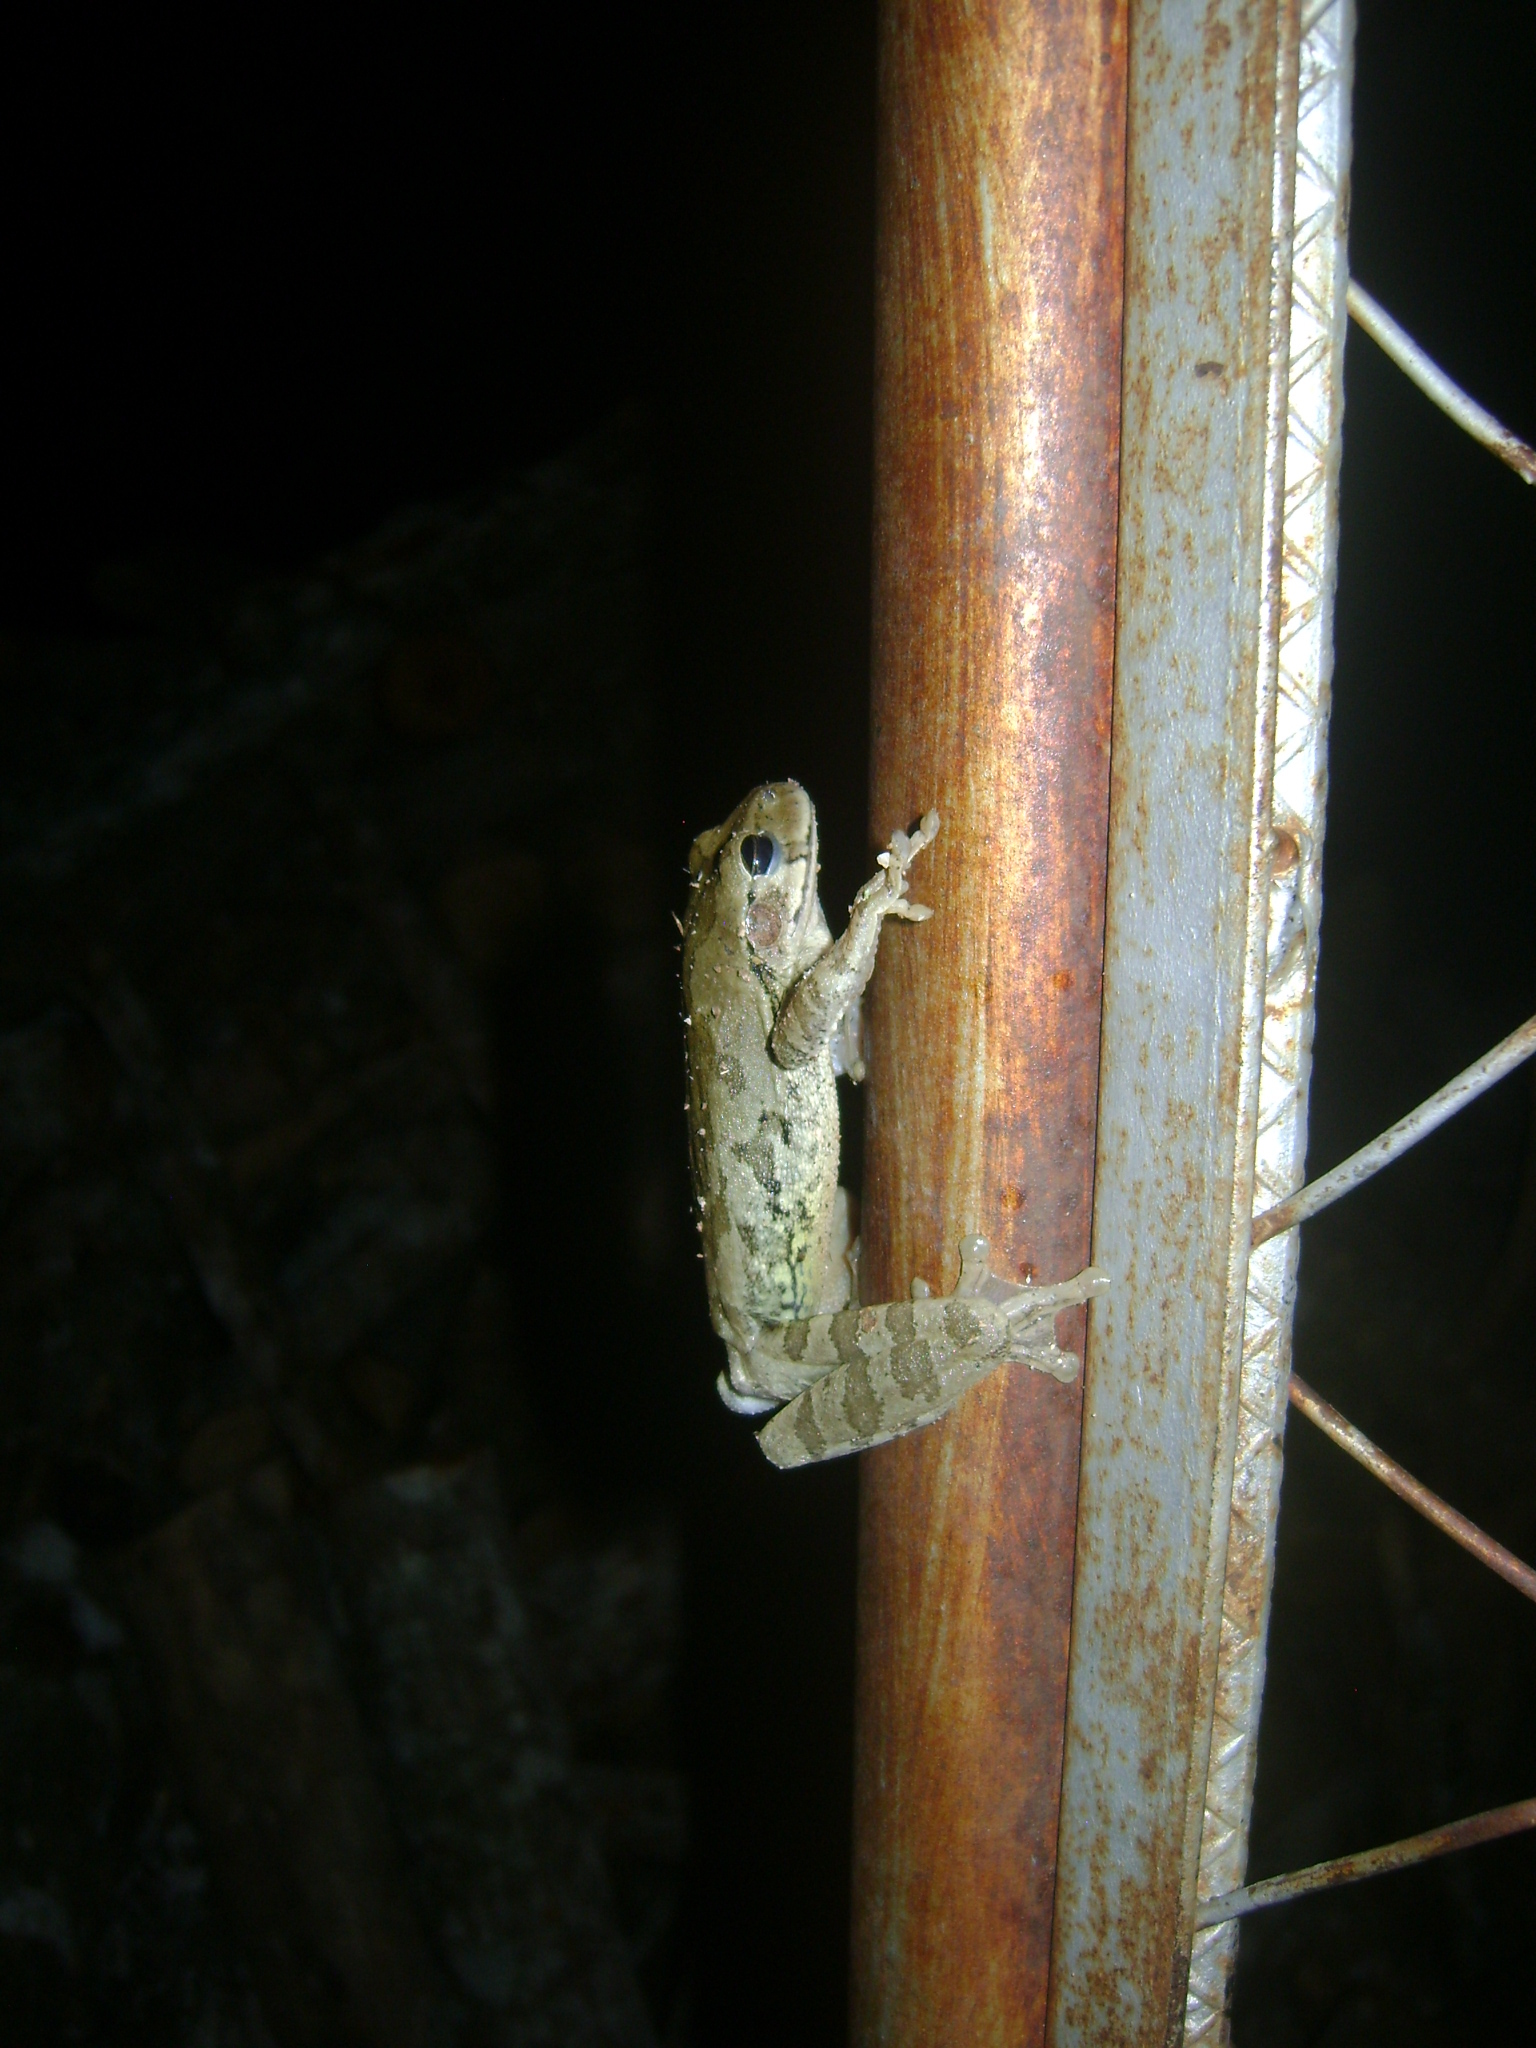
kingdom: Animalia
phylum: Chordata
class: Amphibia
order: Anura
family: Hylidae
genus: Smilisca
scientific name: Smilisca baudinii
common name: Mexican smilisca
